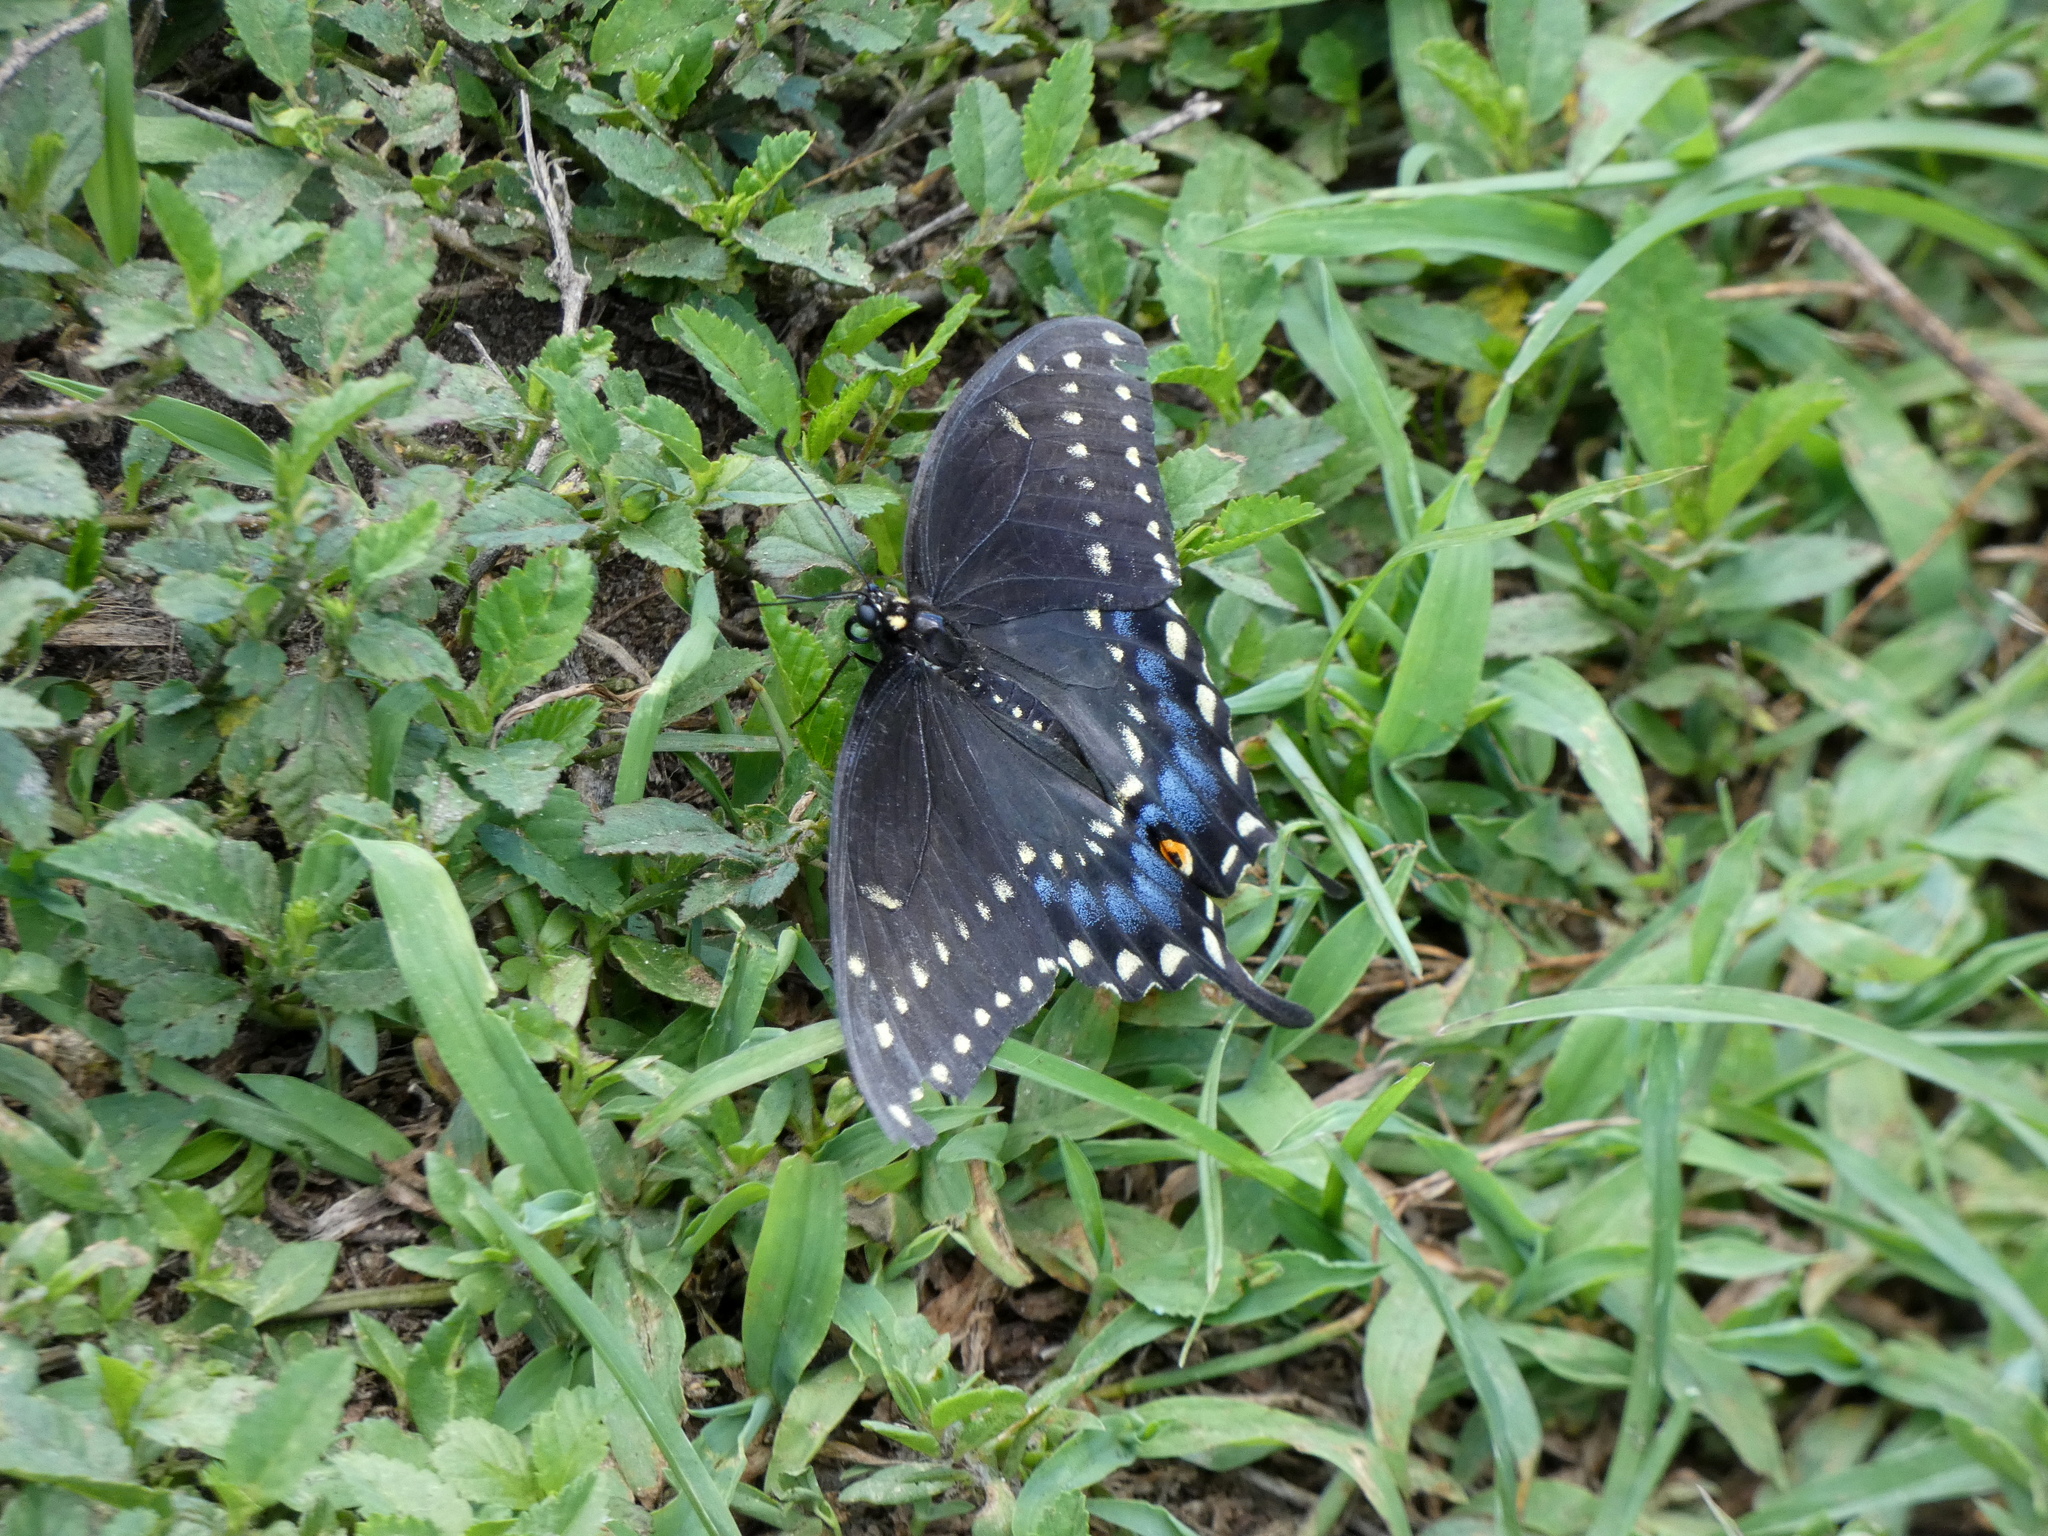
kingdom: Animalia
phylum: Arthropoda
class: Insecta
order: Lepidoptera
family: Papilionidae
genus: Papilio
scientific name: Papilio polyxenes
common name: Black swallowtail
